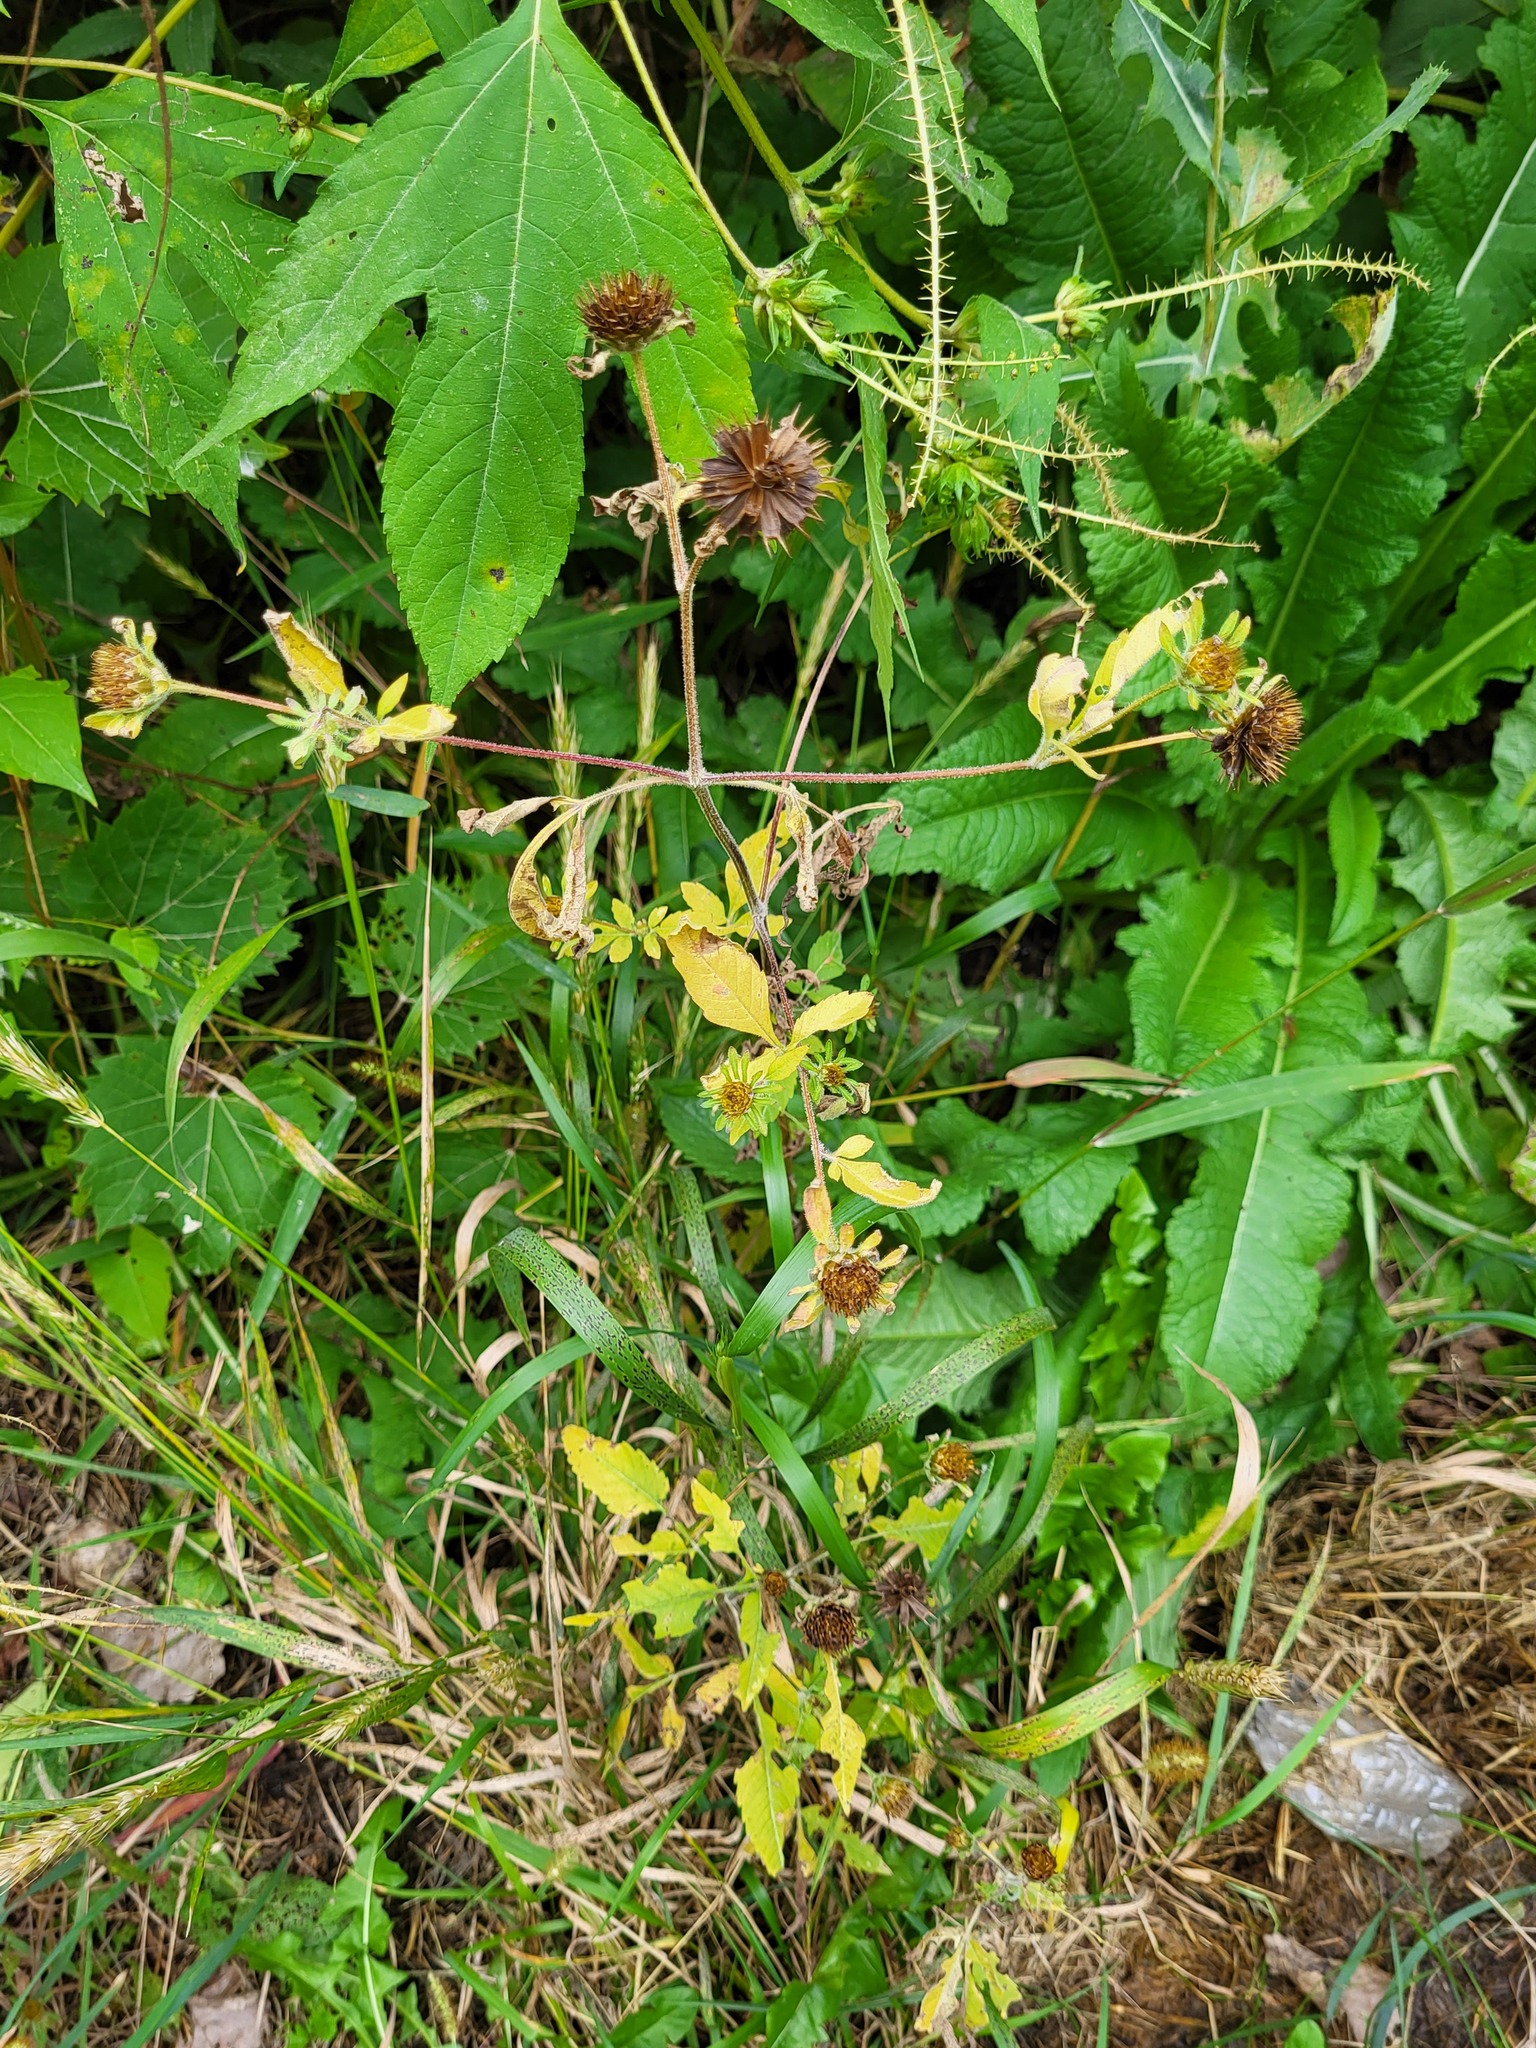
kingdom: Plantae
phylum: Tracheophyta
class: Magnoliopsida
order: Asterales
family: Asteraceae
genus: Bidens
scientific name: Bidens vulgata
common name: Tall beggarticks
